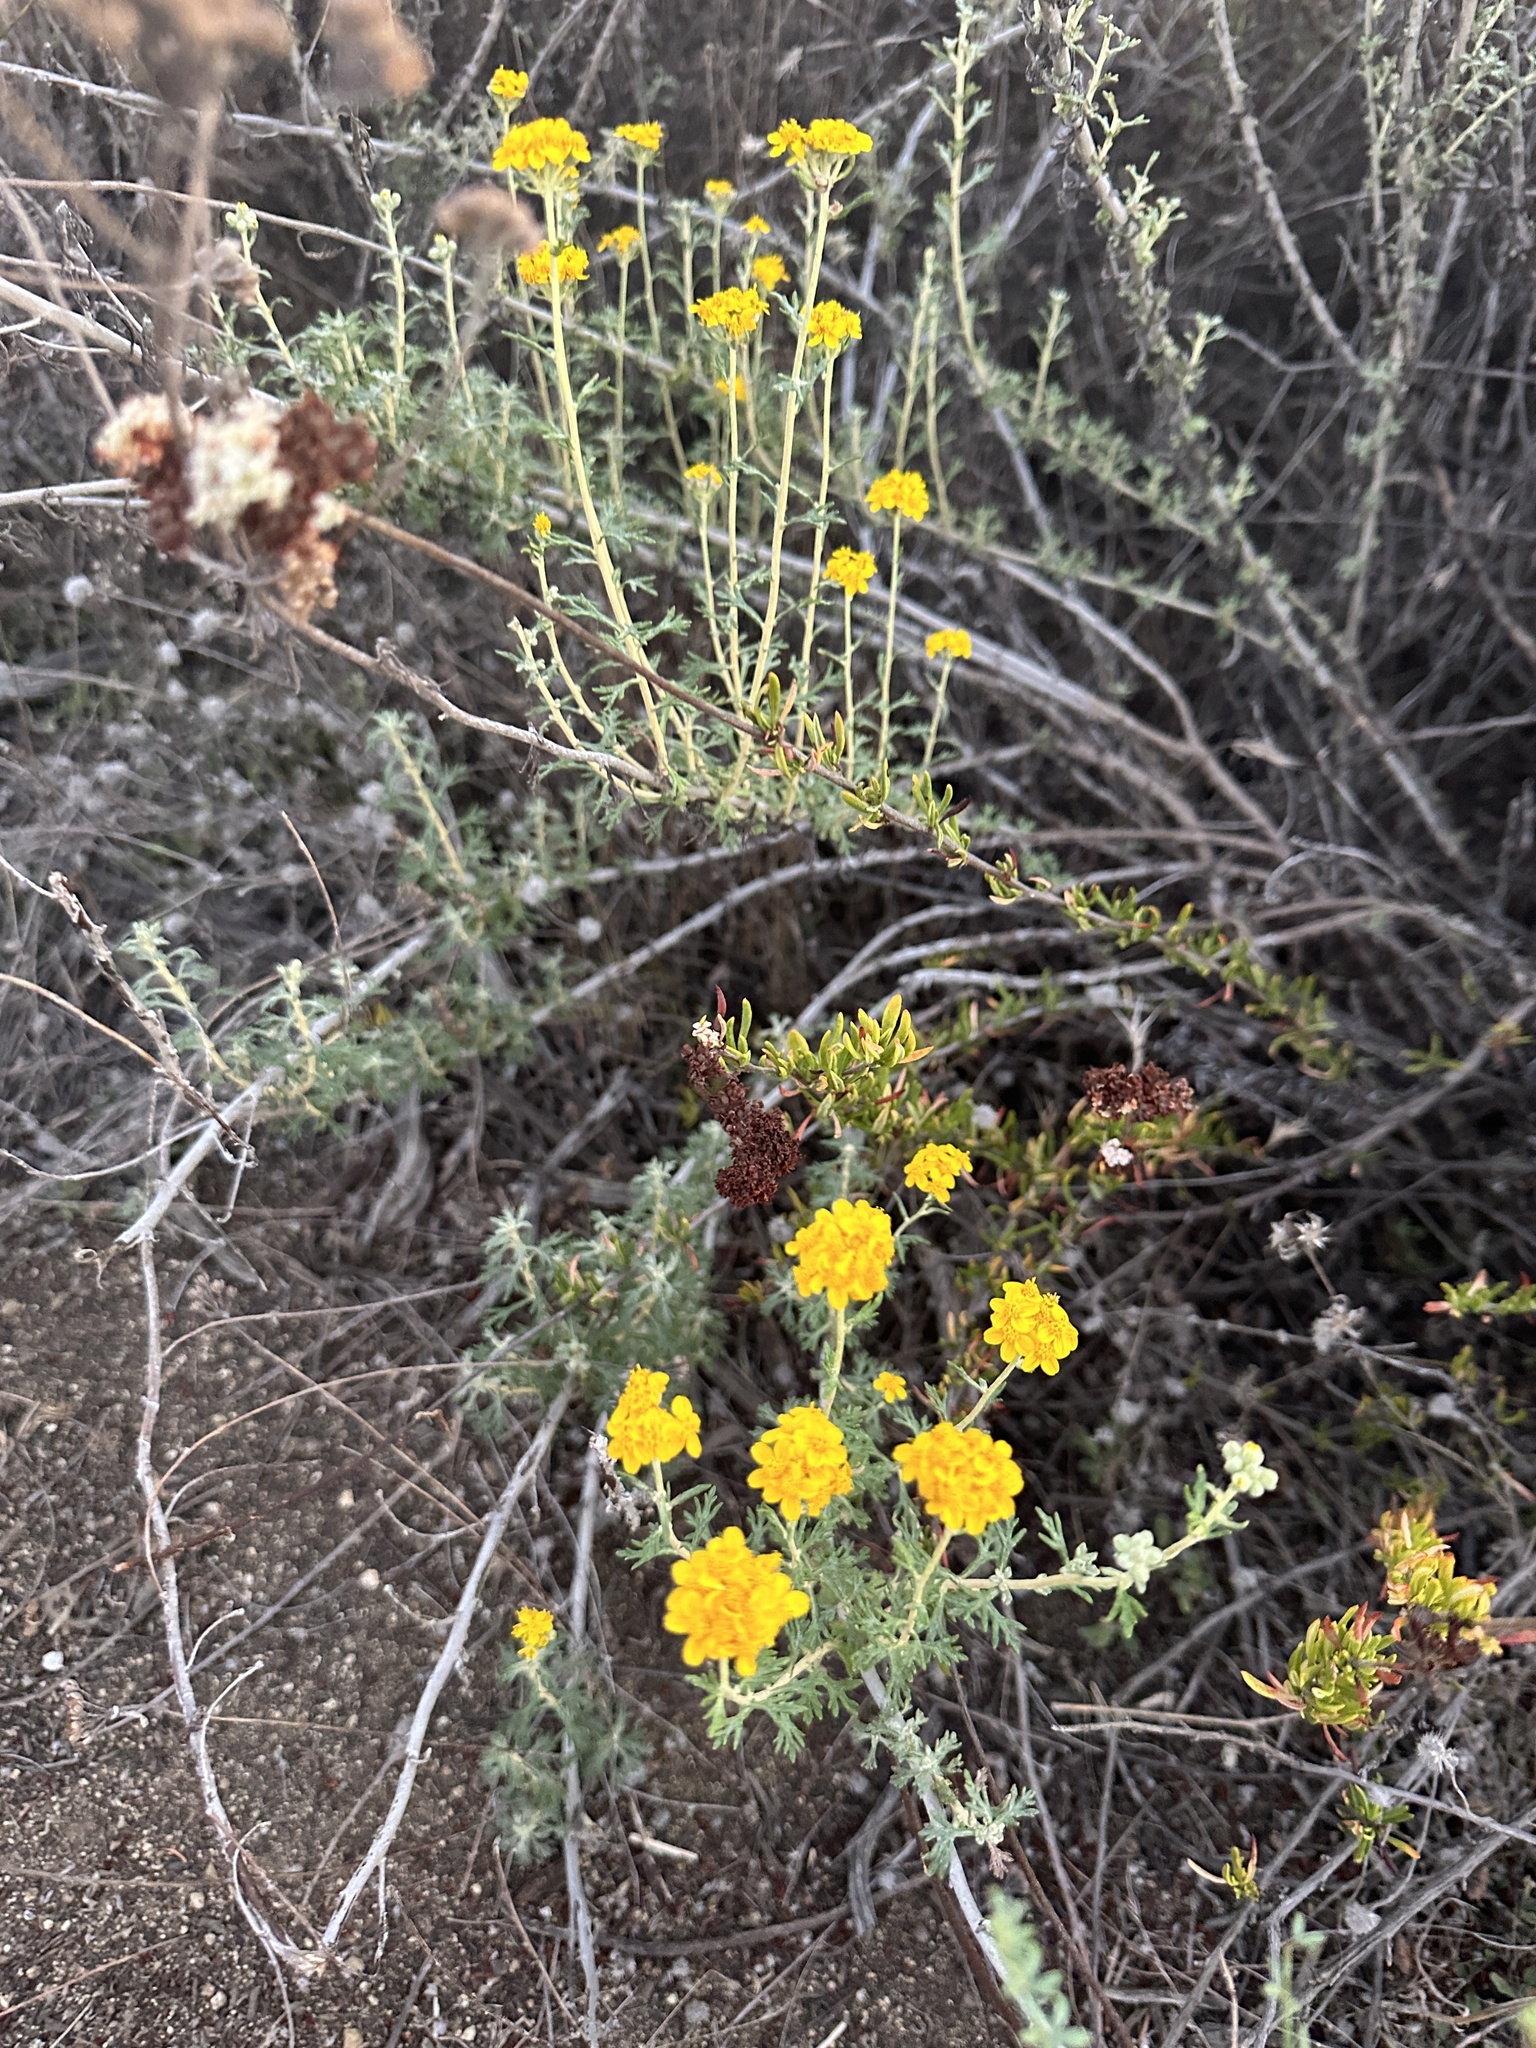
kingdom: Plantae
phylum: Tracheophyta
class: Magnoliopsida
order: Asterales
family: Asteraceae
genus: Eriophyllum
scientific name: Eriophyllum confertiflorum
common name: Golden-yarrow
